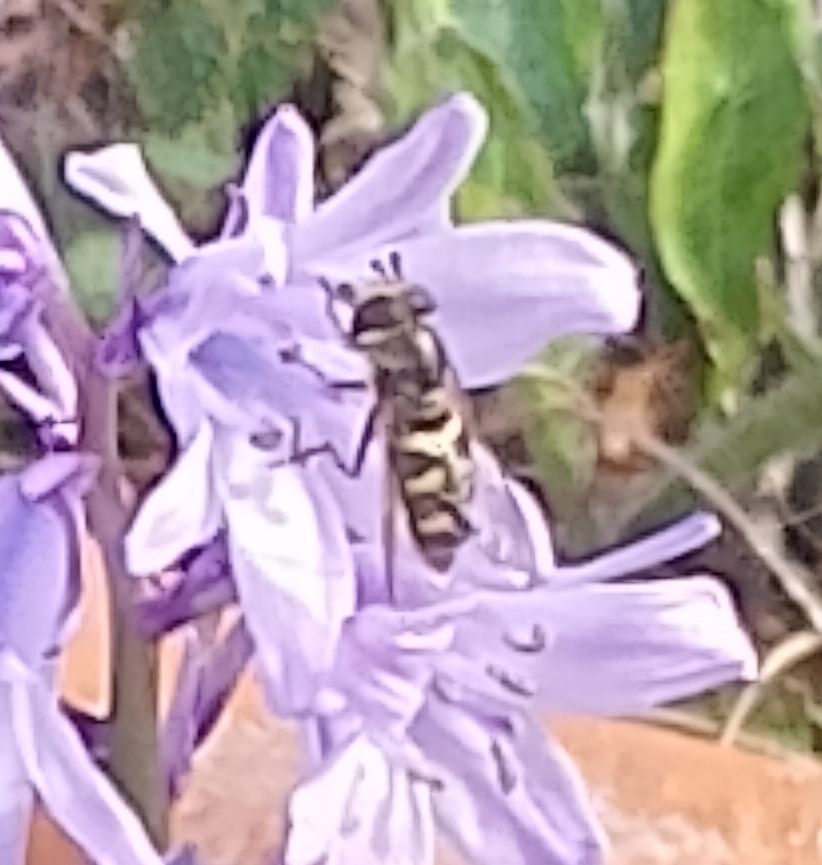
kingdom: Animalia
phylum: Arthropoda
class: Insecta
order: Diptera
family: Syrphidae
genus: Eupeodes
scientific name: Eupeodes
